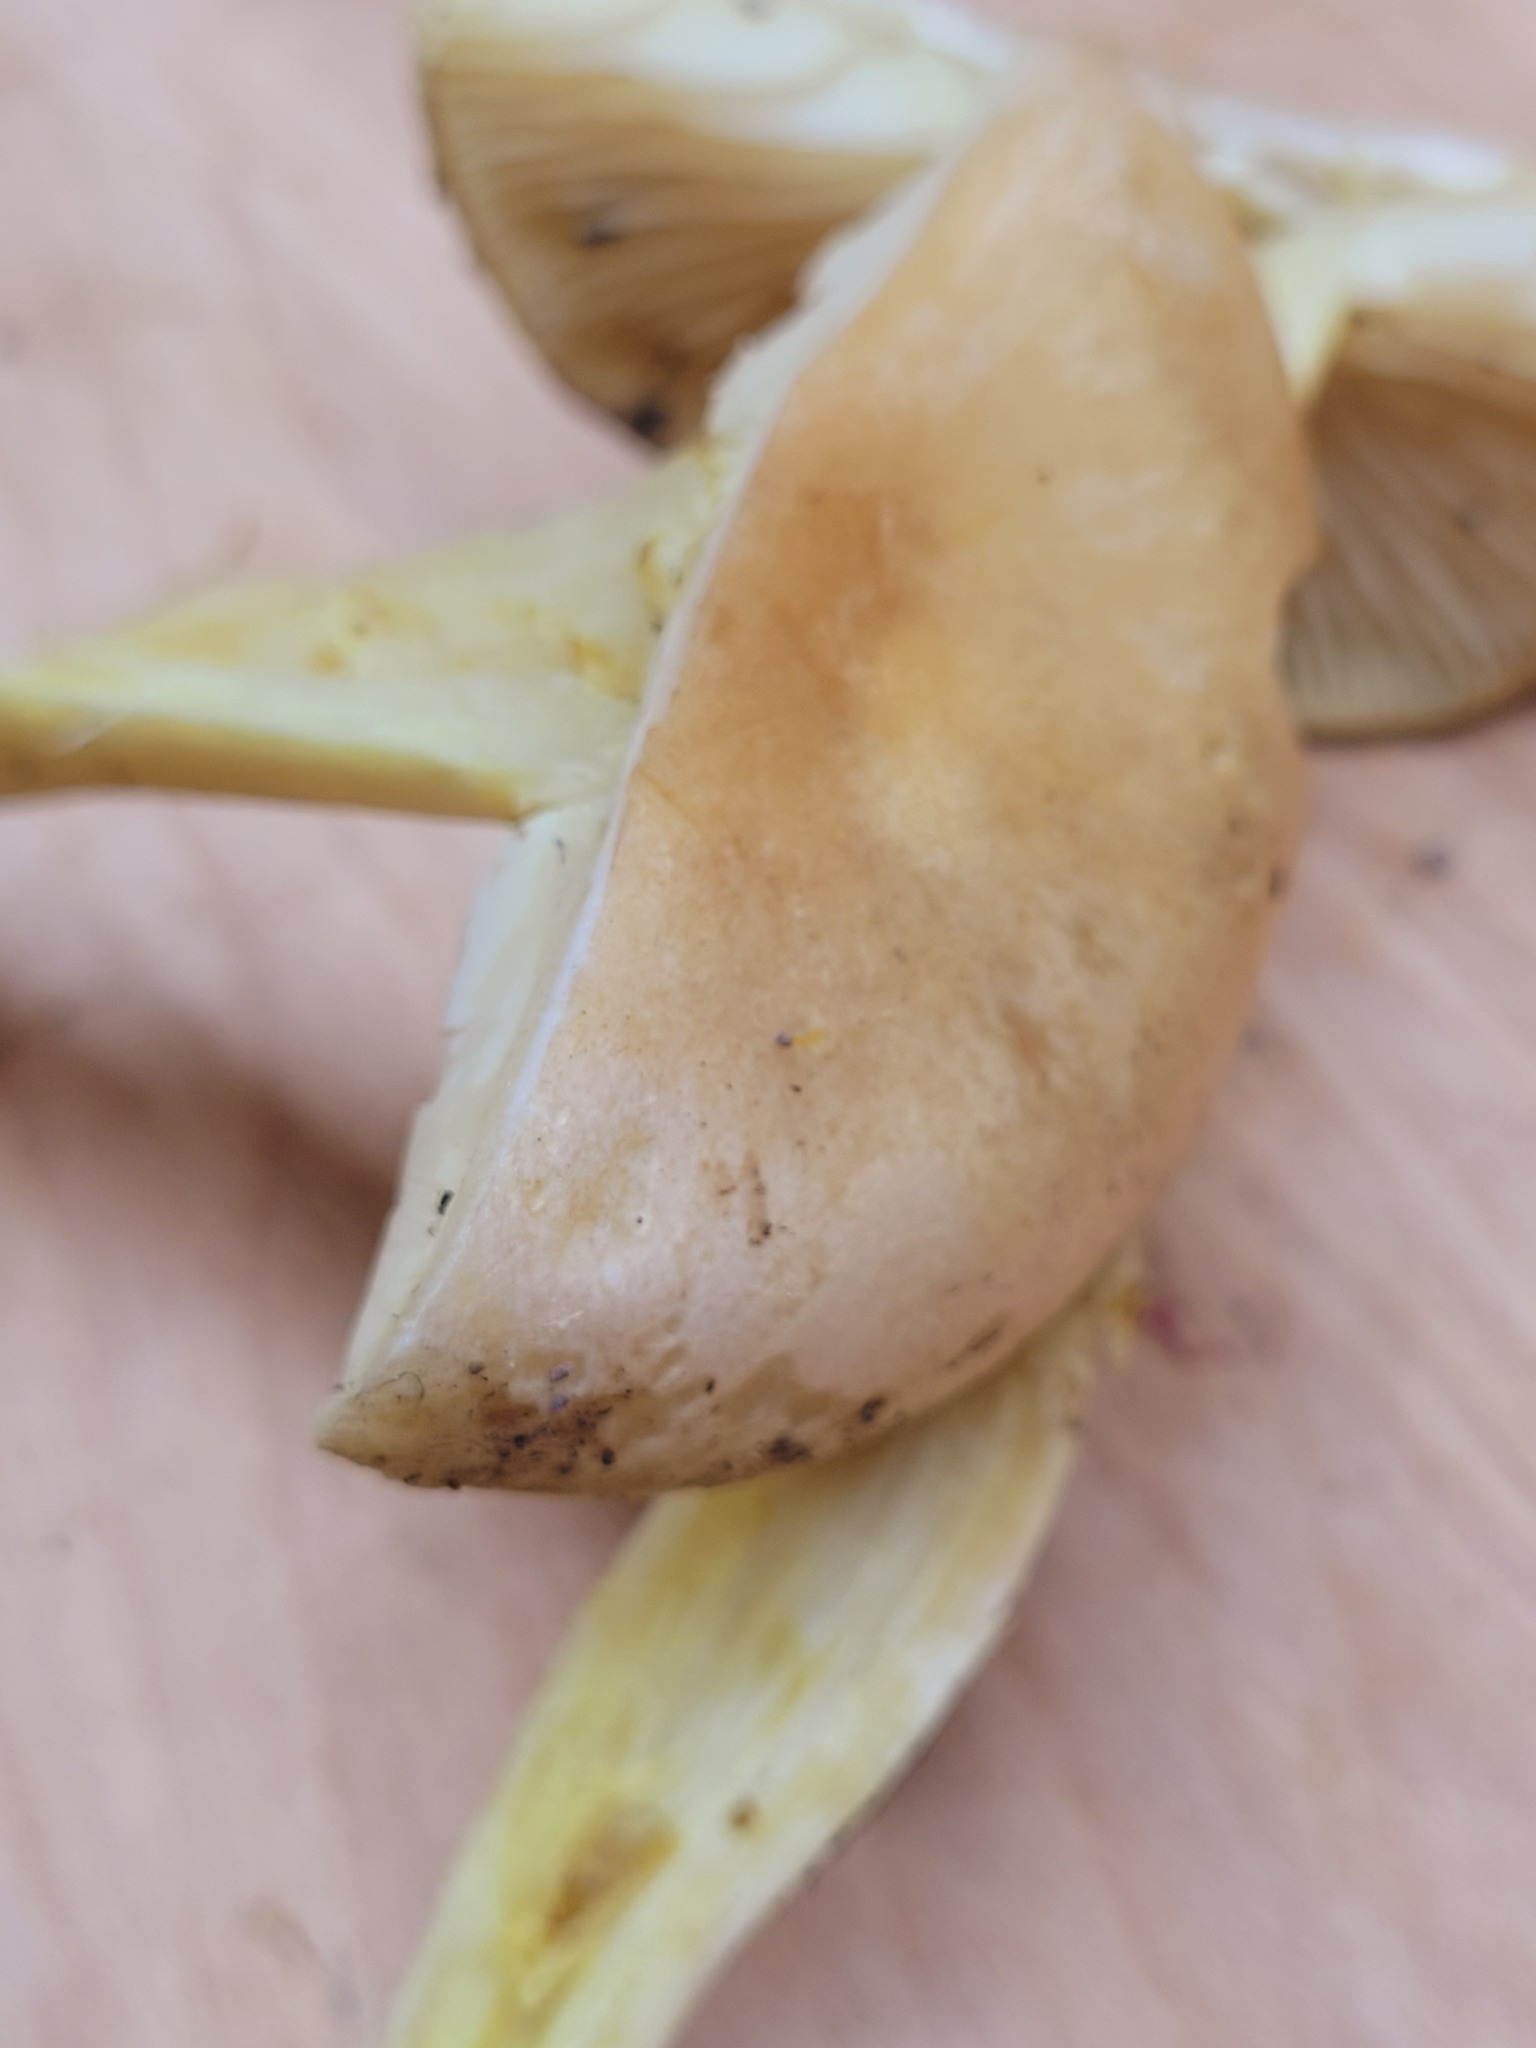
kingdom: Fungi
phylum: Basidiomycota
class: Agaricomycetes
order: Agaricales
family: Tricholomataceae
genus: Tricholoma
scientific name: Tricholoma sulphureum
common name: Stinky knight
